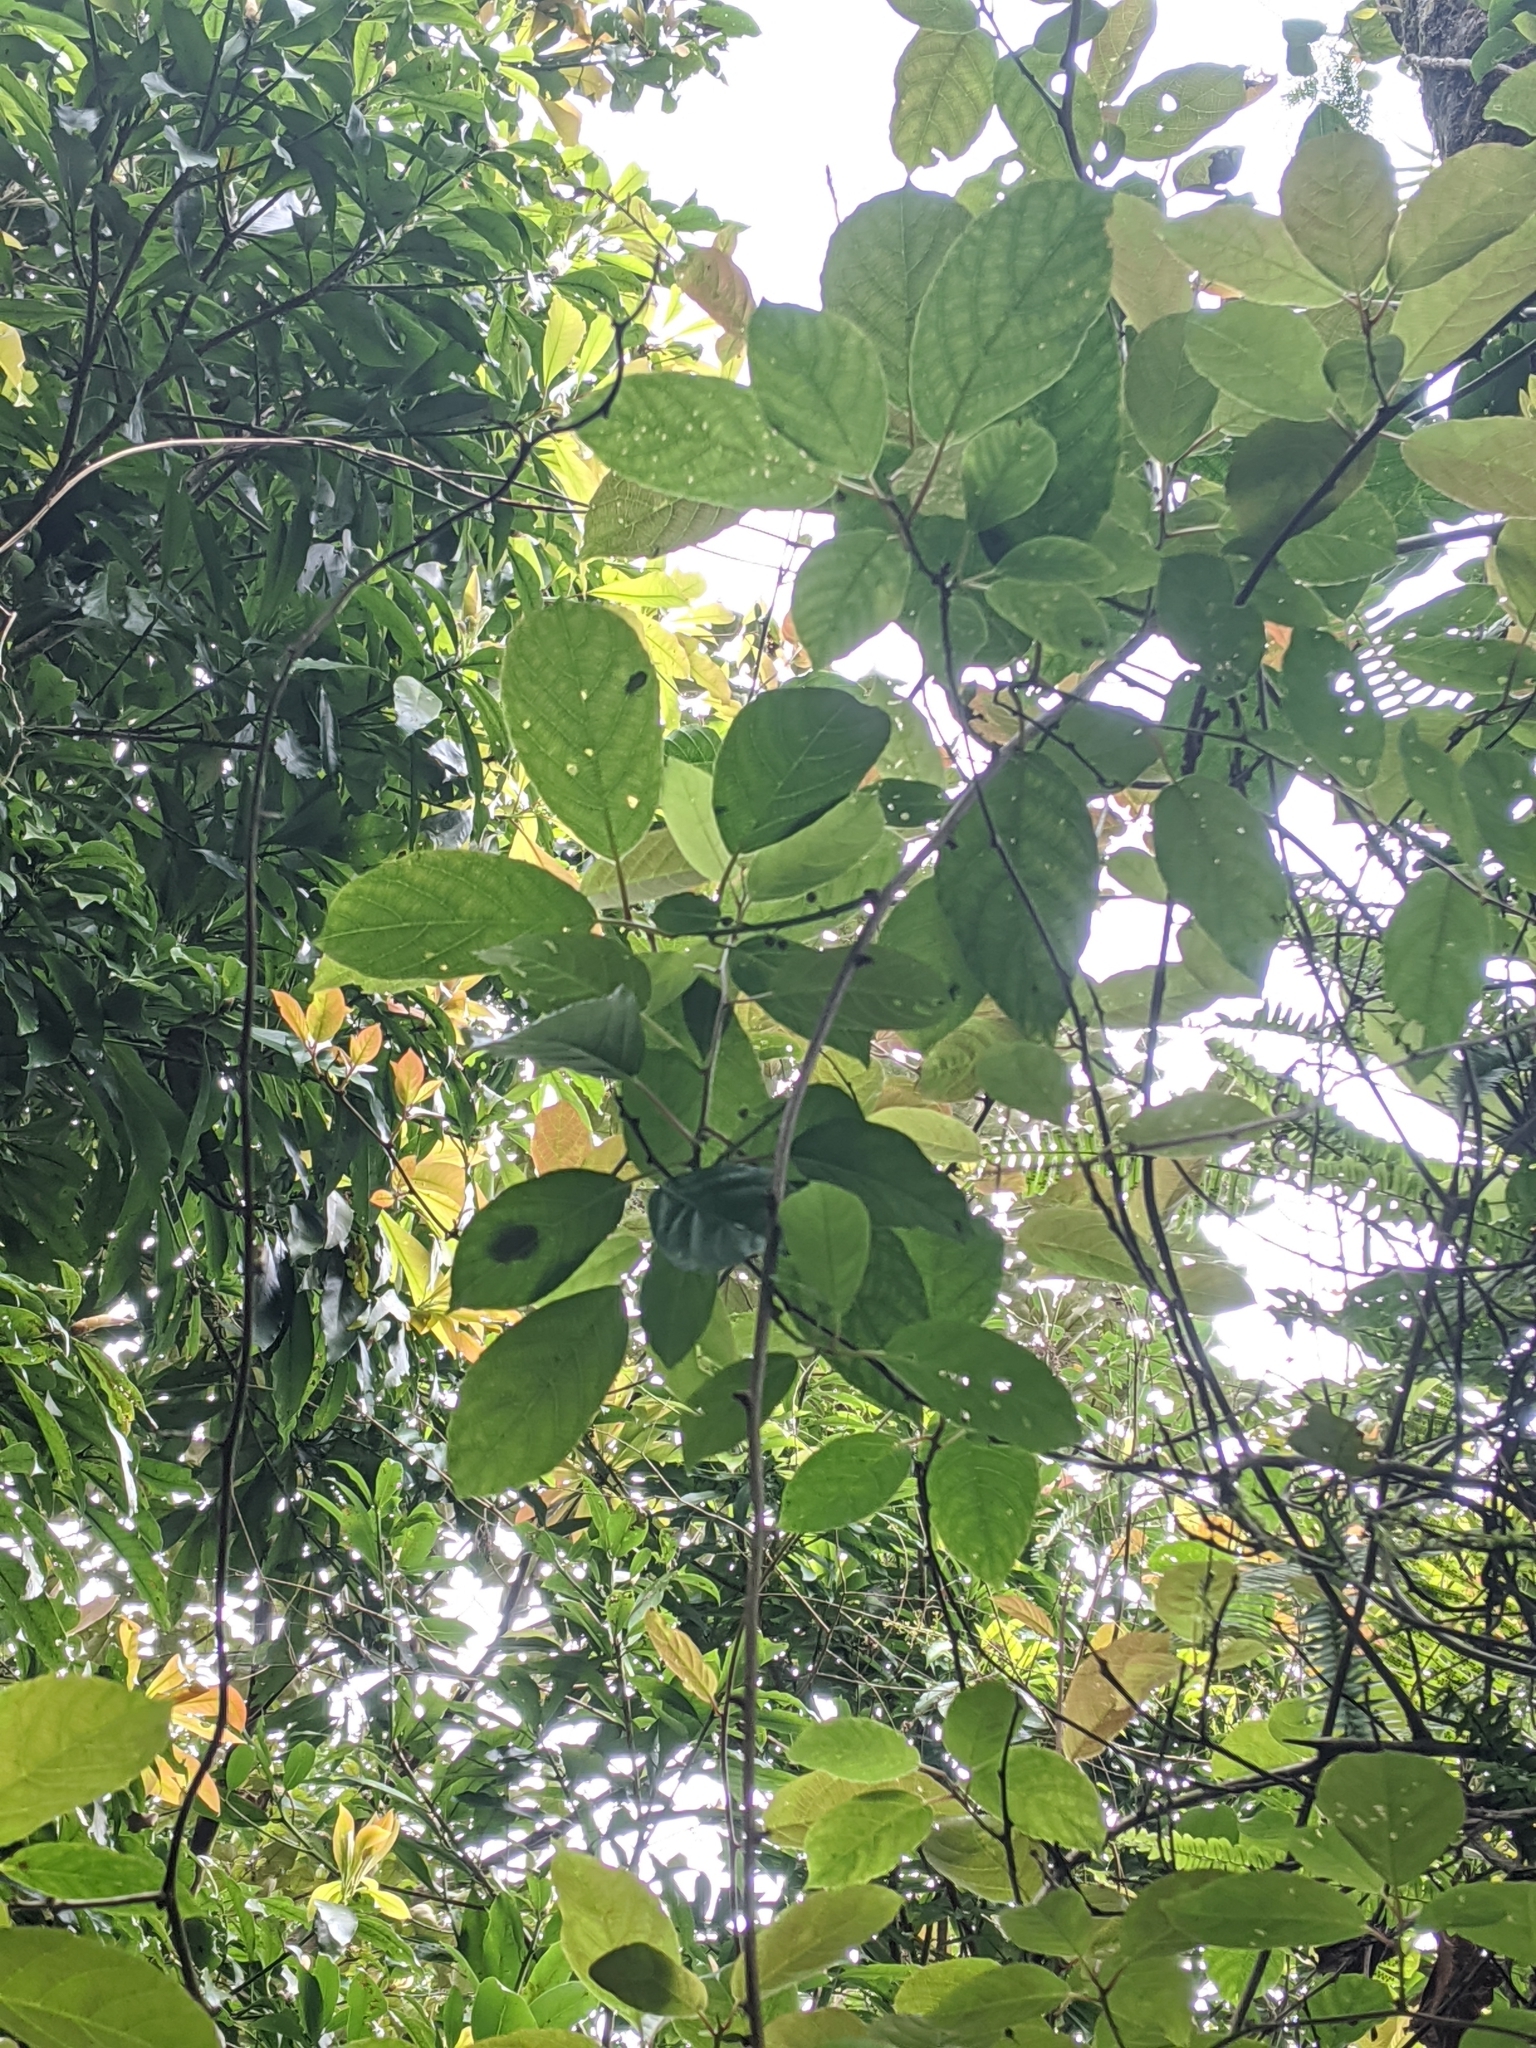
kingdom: Plantae
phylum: Tracheophyta
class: Magnoliopsida
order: Ericales
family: Actinidiaceae
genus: Actinidia
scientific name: Actinidia callosa
